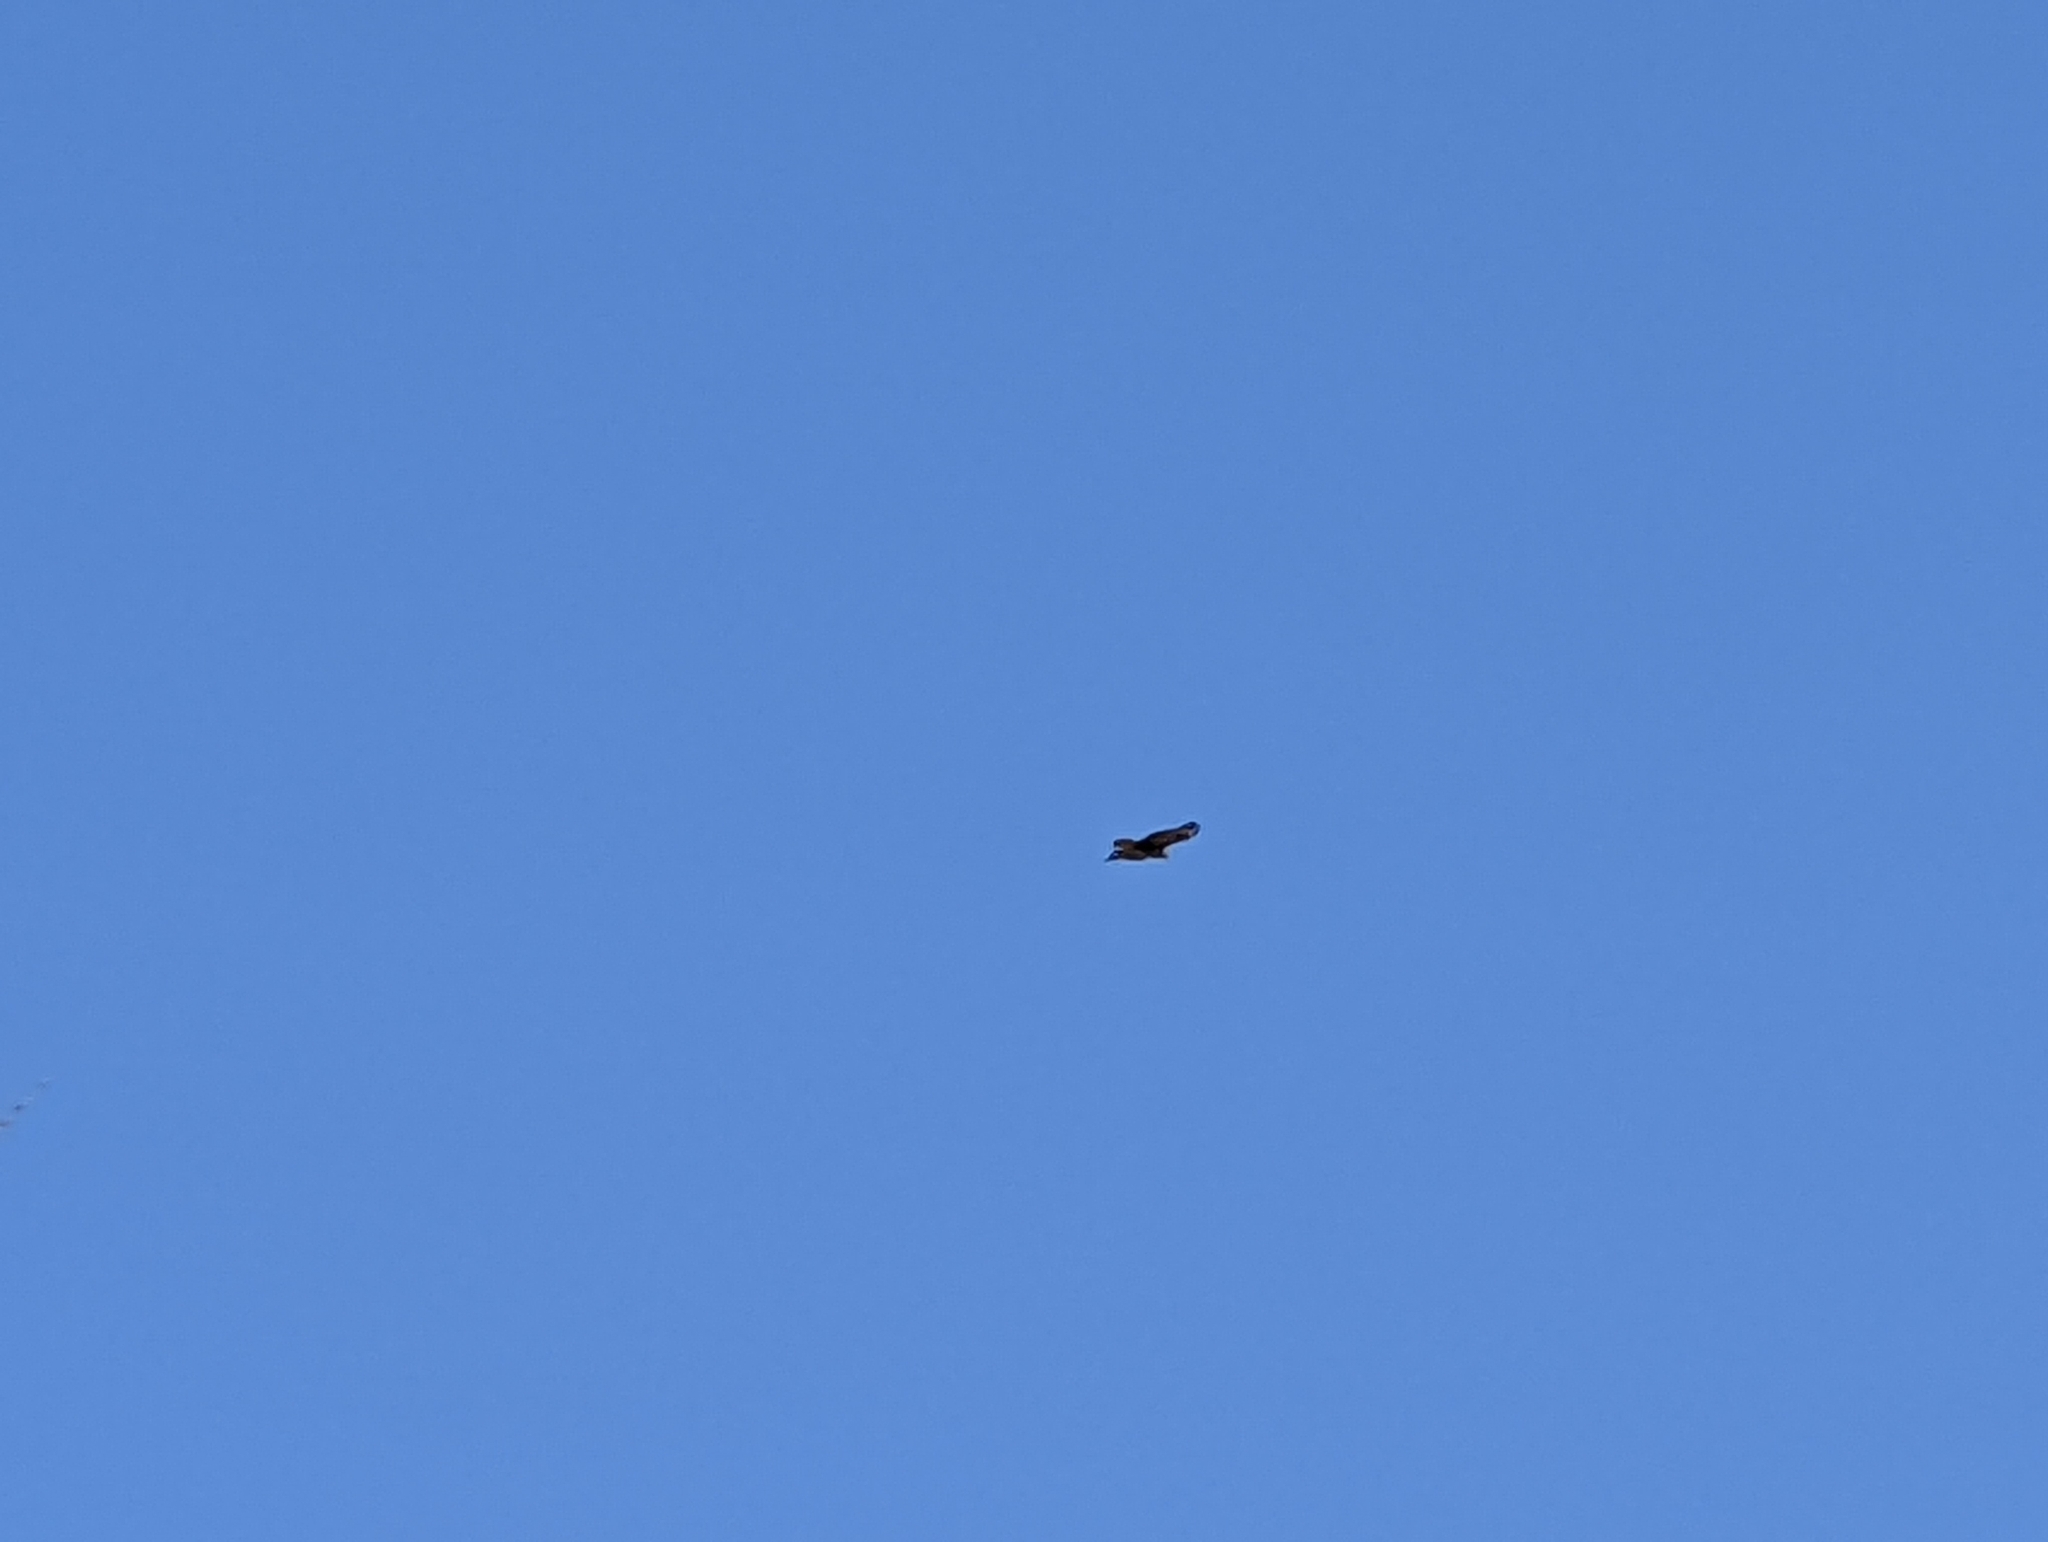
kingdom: Animalia
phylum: Chordata
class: Aves
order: Accipitriformes
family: Accipitridae
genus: Buteo
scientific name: Buteo buteo
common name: Common buzzard
